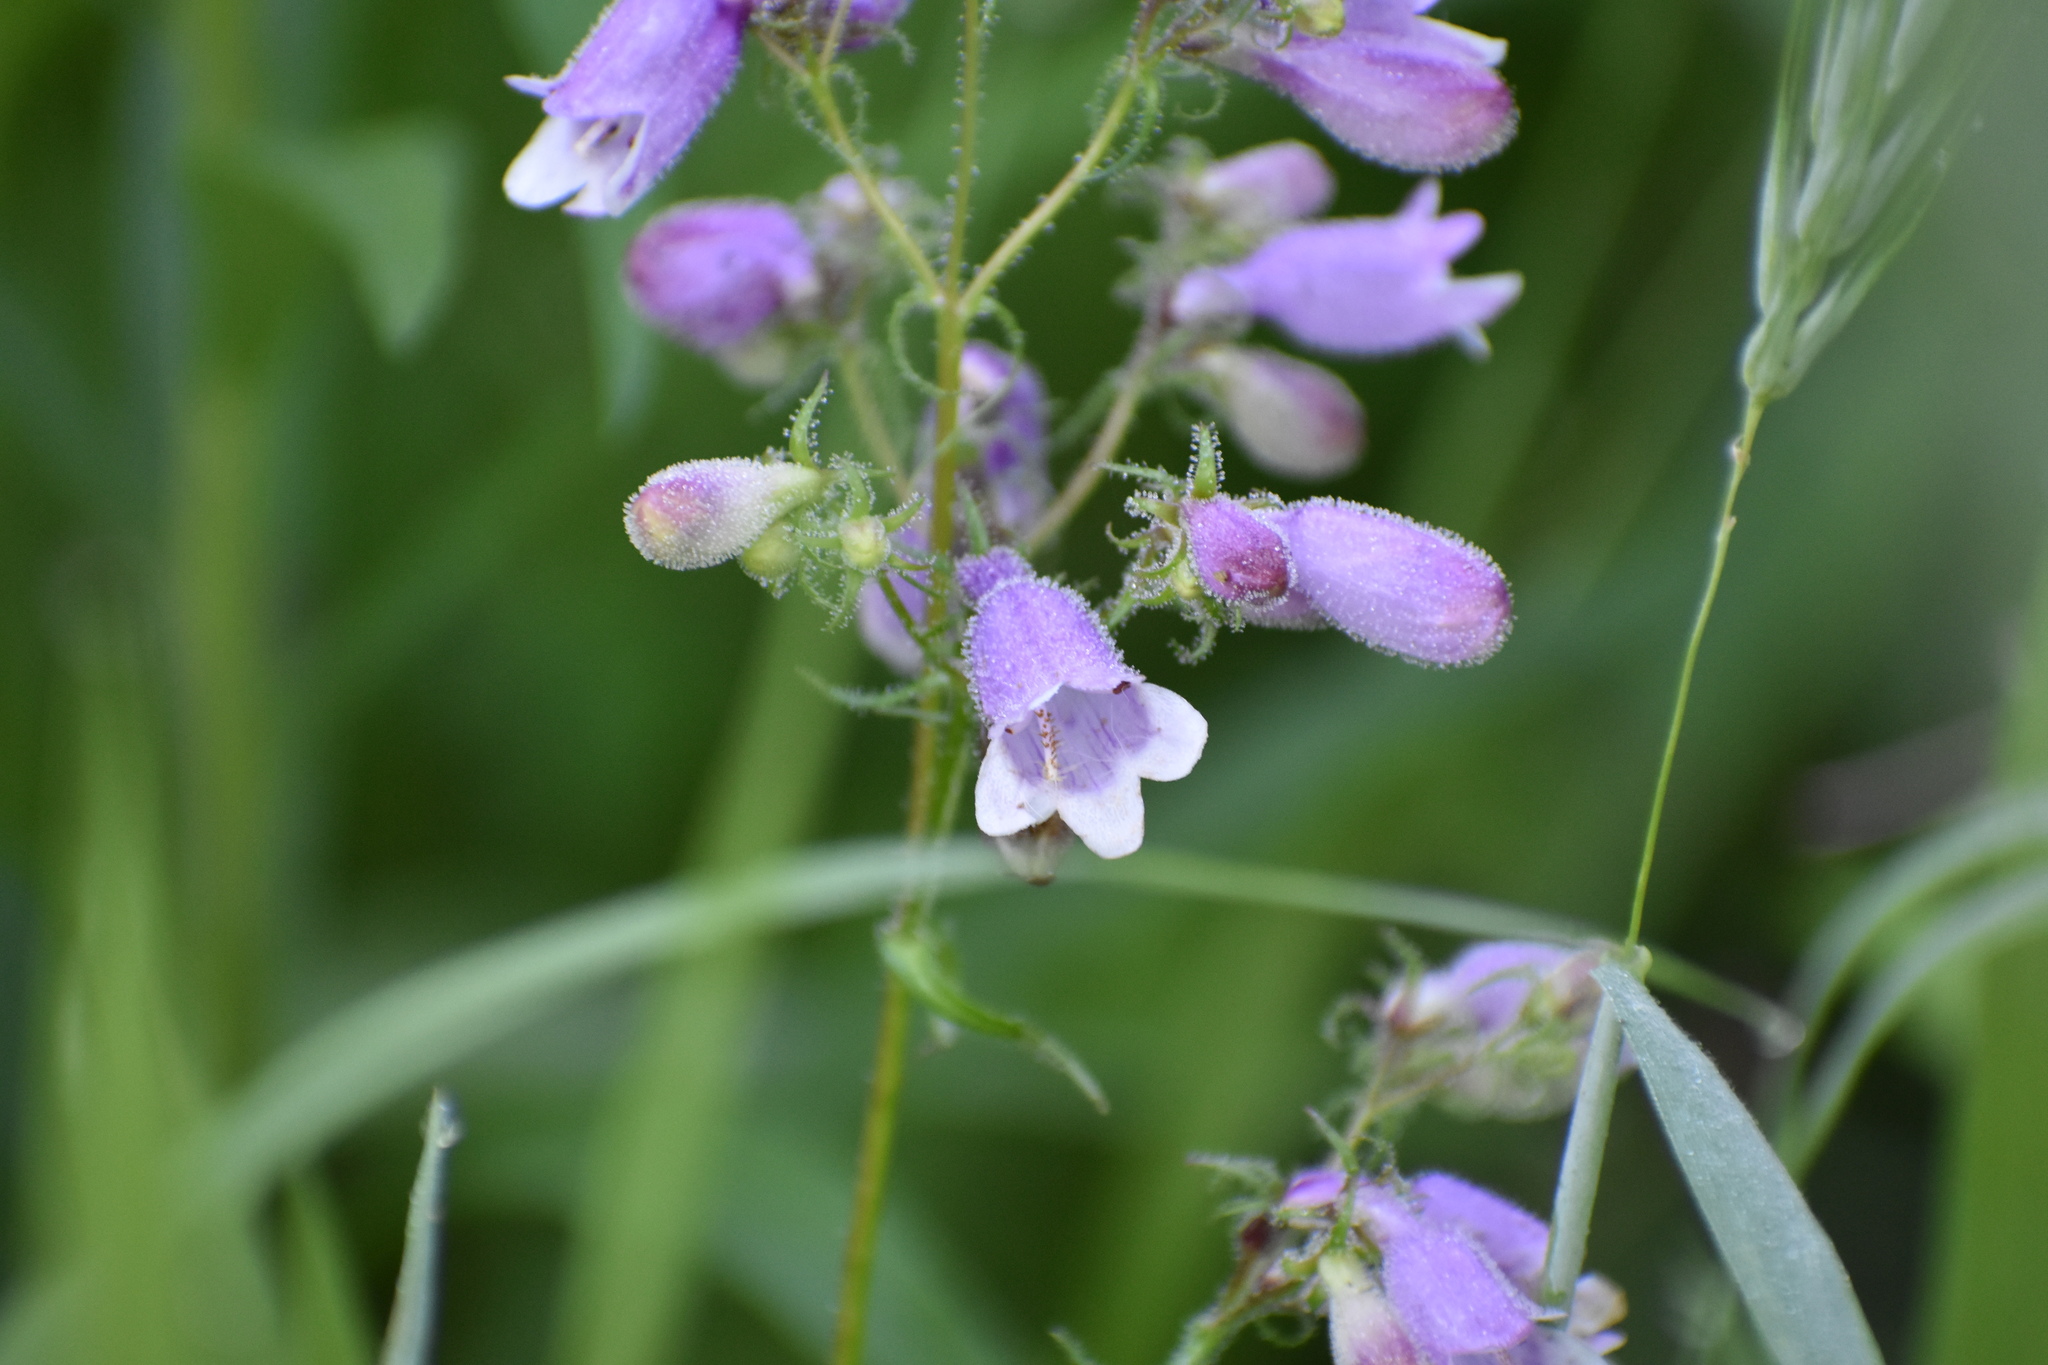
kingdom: Plantae
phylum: Tracheophyta
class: Magnoliopsida
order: Lamiales
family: Plantaginaceae
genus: Penstemon
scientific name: Penstemon calycosus
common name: Long-sepal beardtongue
